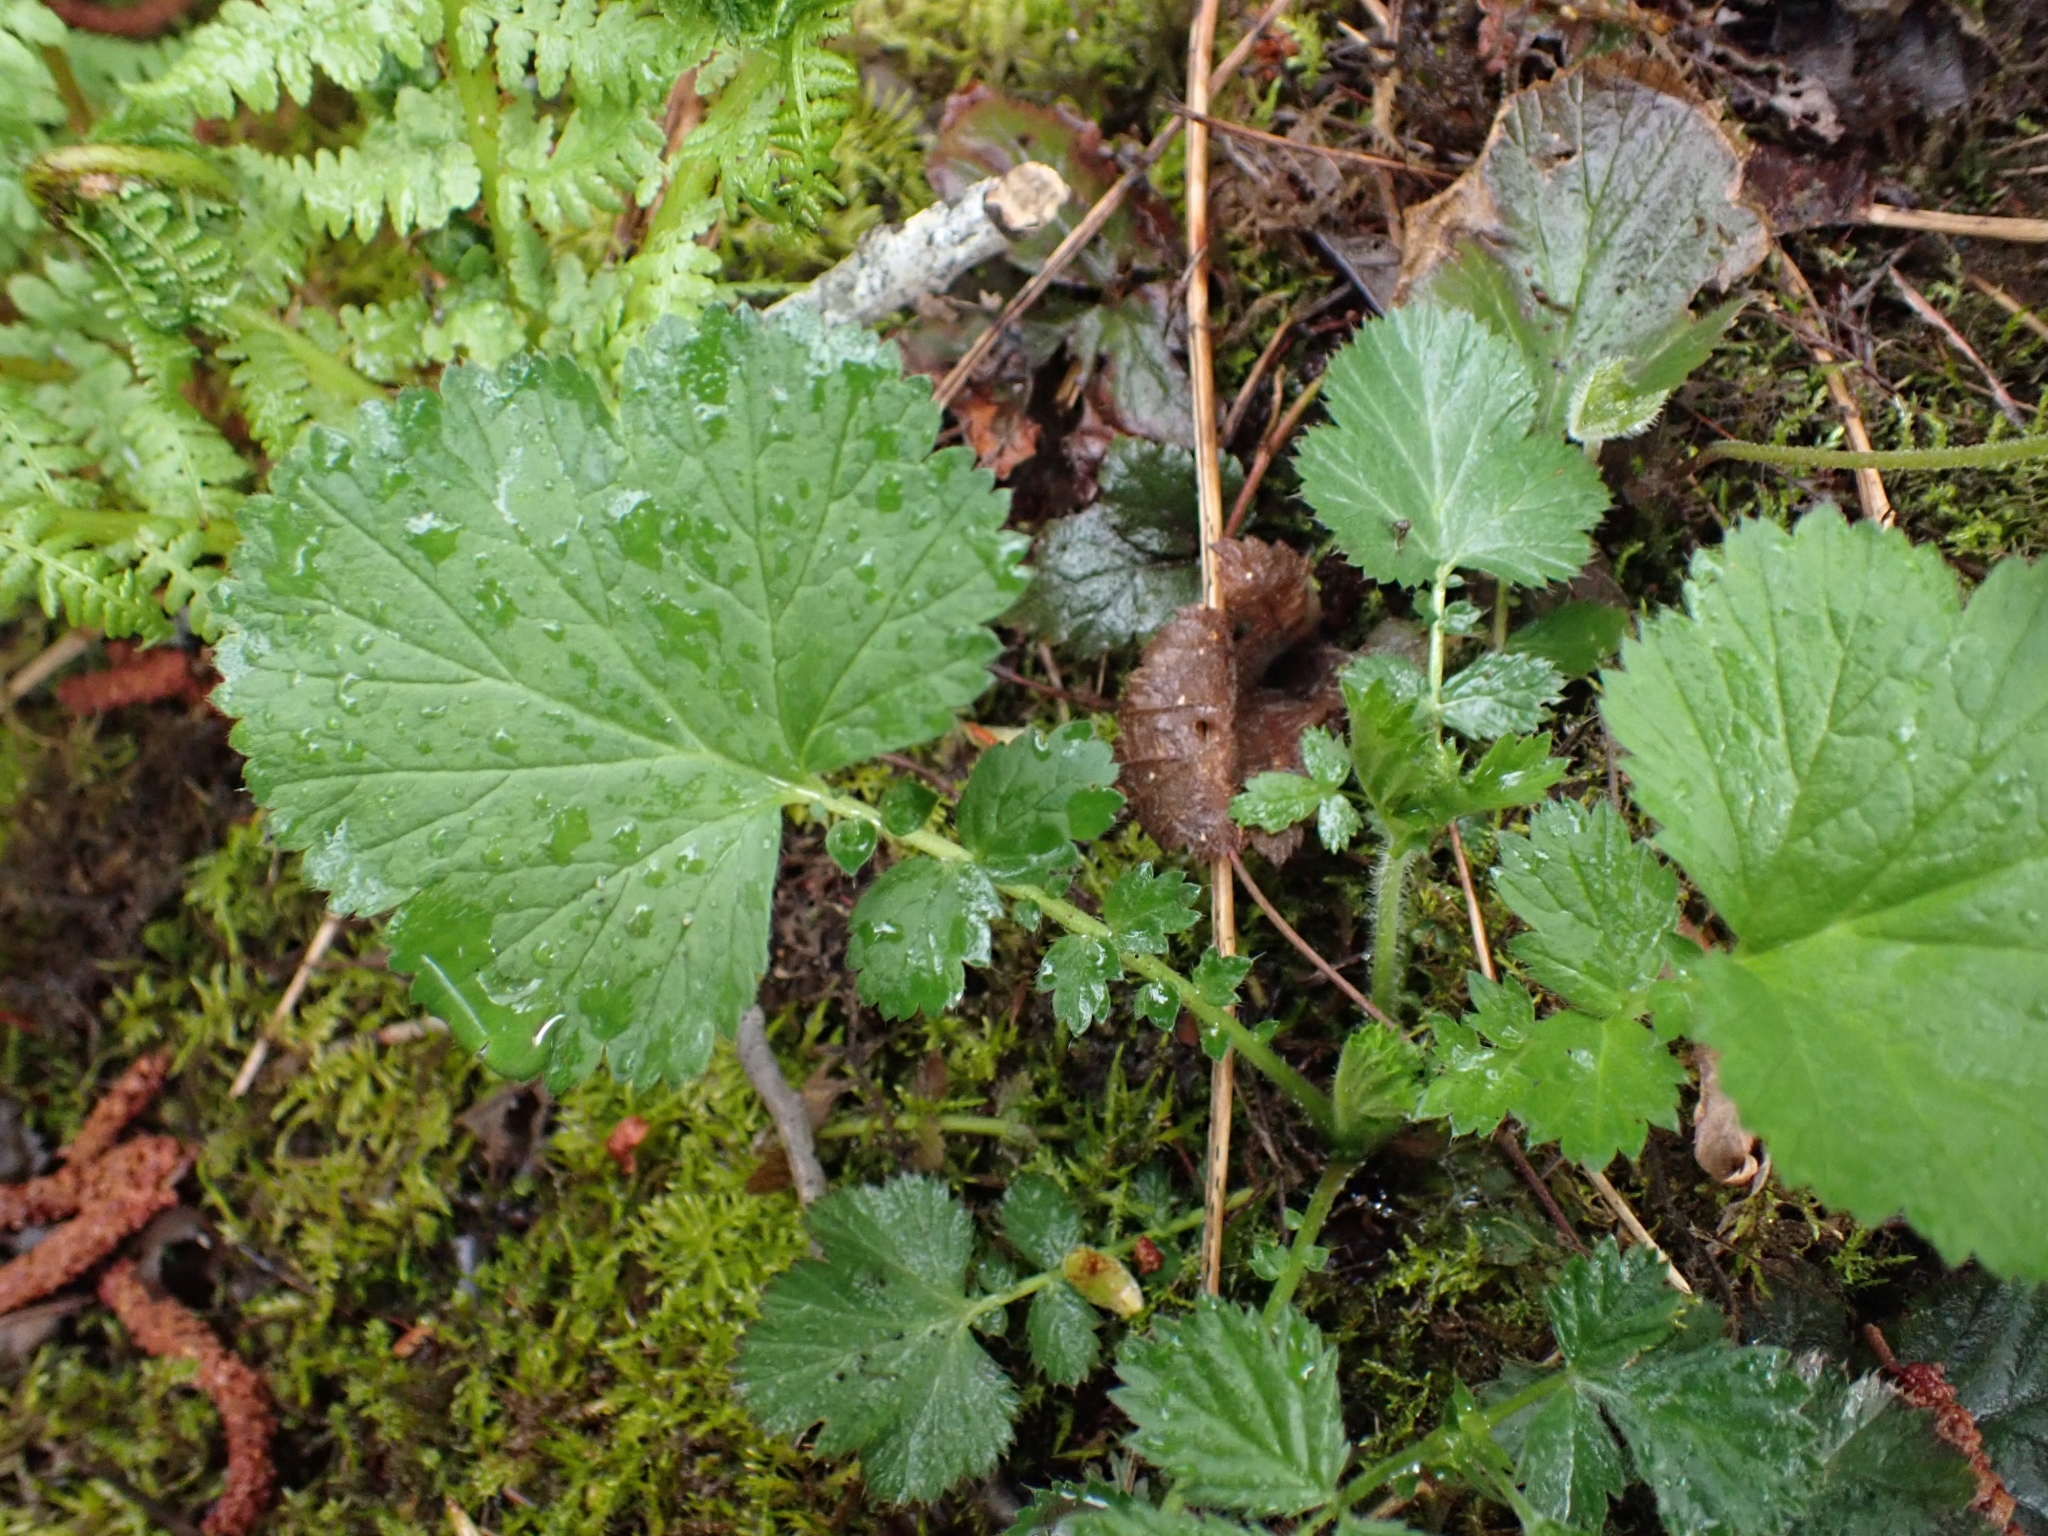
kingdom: Plantae
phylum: Tracheophyta
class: Magnoliopsida
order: Rosales
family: Rosaceae
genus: Geum
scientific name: Geum macrophyllum
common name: Large-leaved avens
